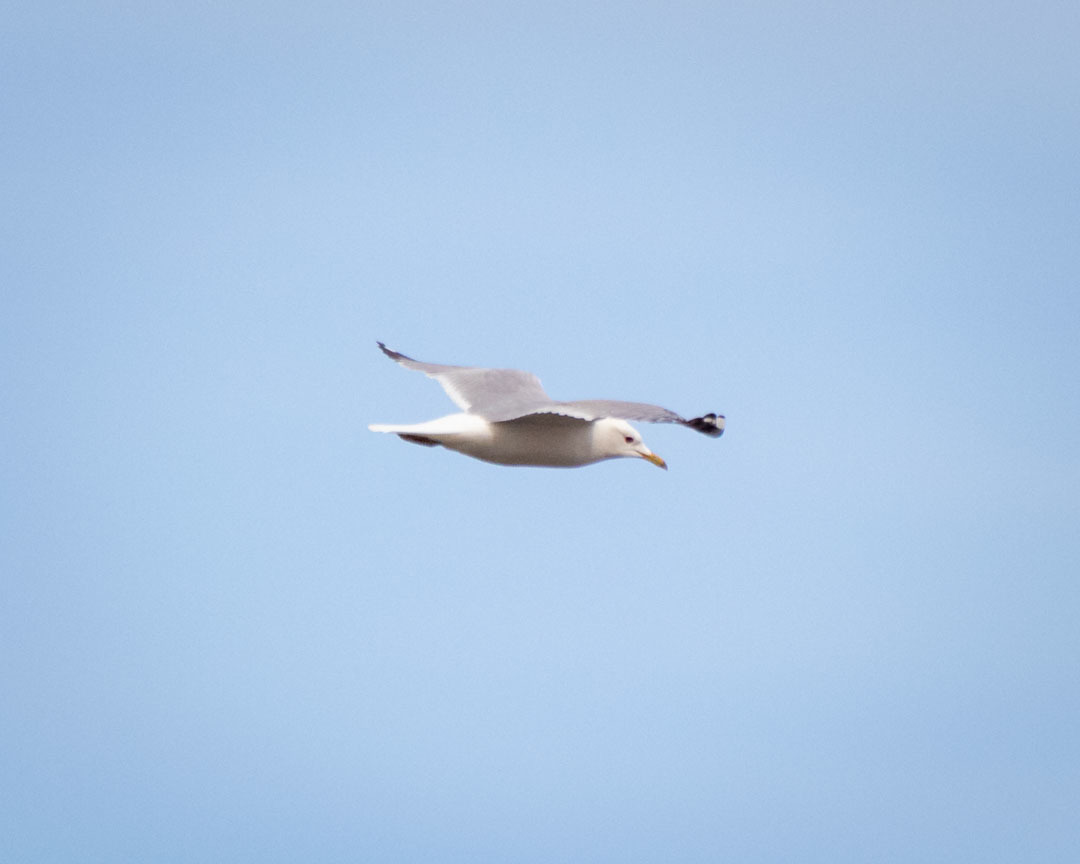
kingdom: Animalia
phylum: Chordata
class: Aves
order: Charadriiformes
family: Laridae
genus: Larus
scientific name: Larus canus
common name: Mew gull
